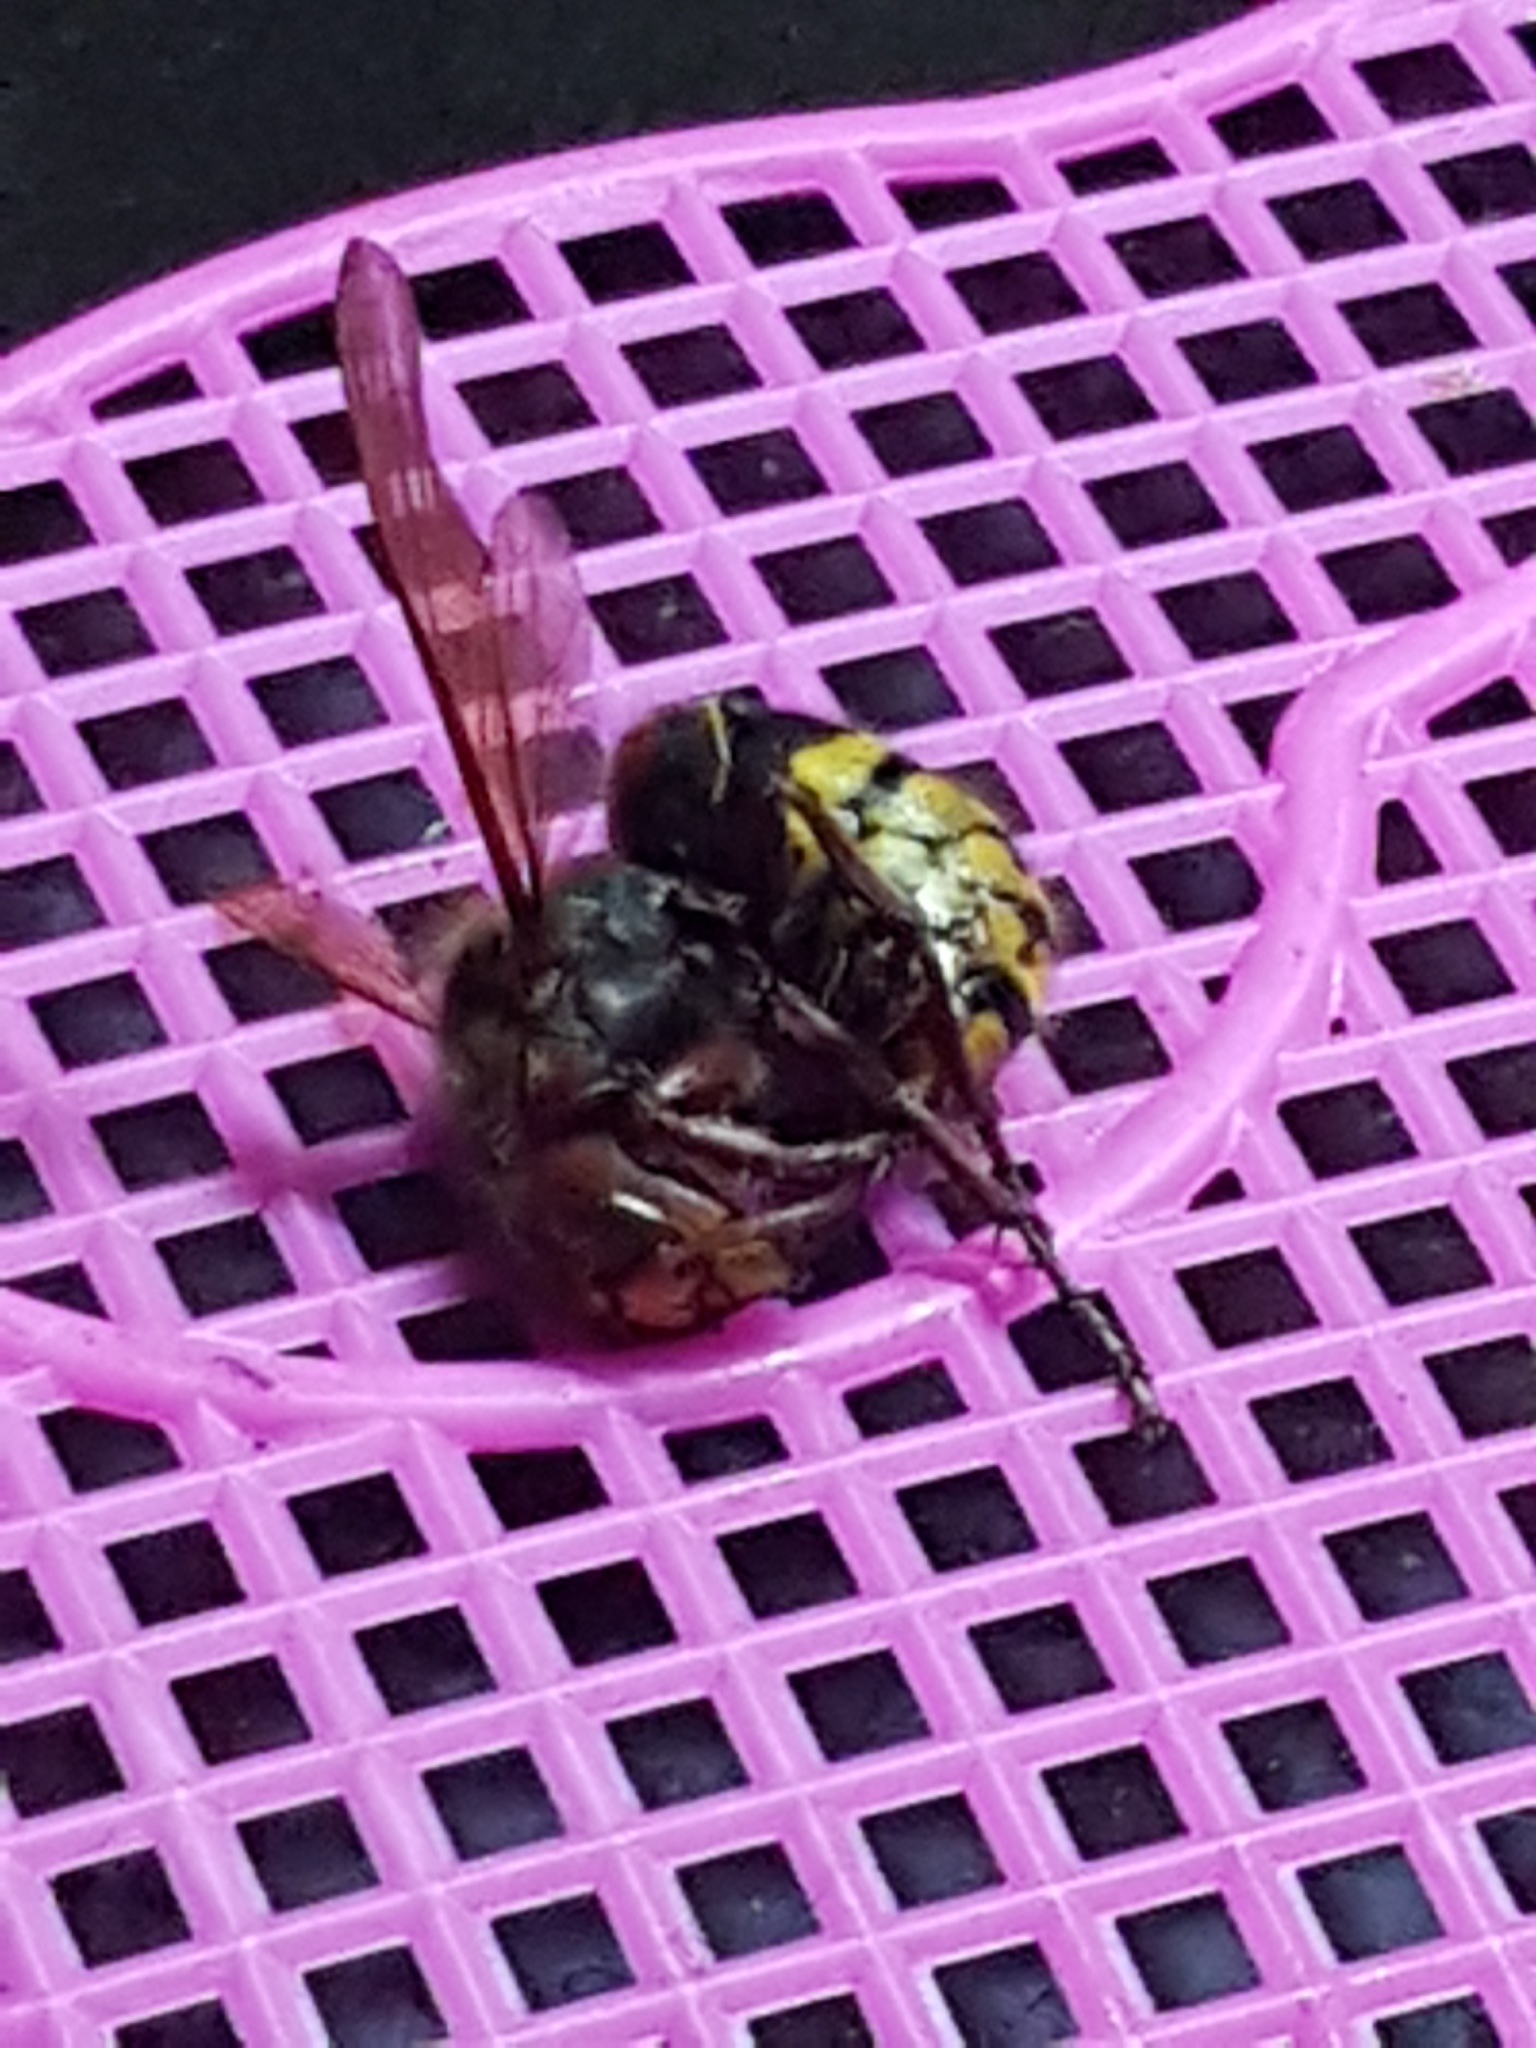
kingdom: Animalia
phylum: Arthropoda
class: Insecta
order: Hymenoptera
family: Vespidae
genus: Vespa
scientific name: Vespa crabro
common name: Hornet
